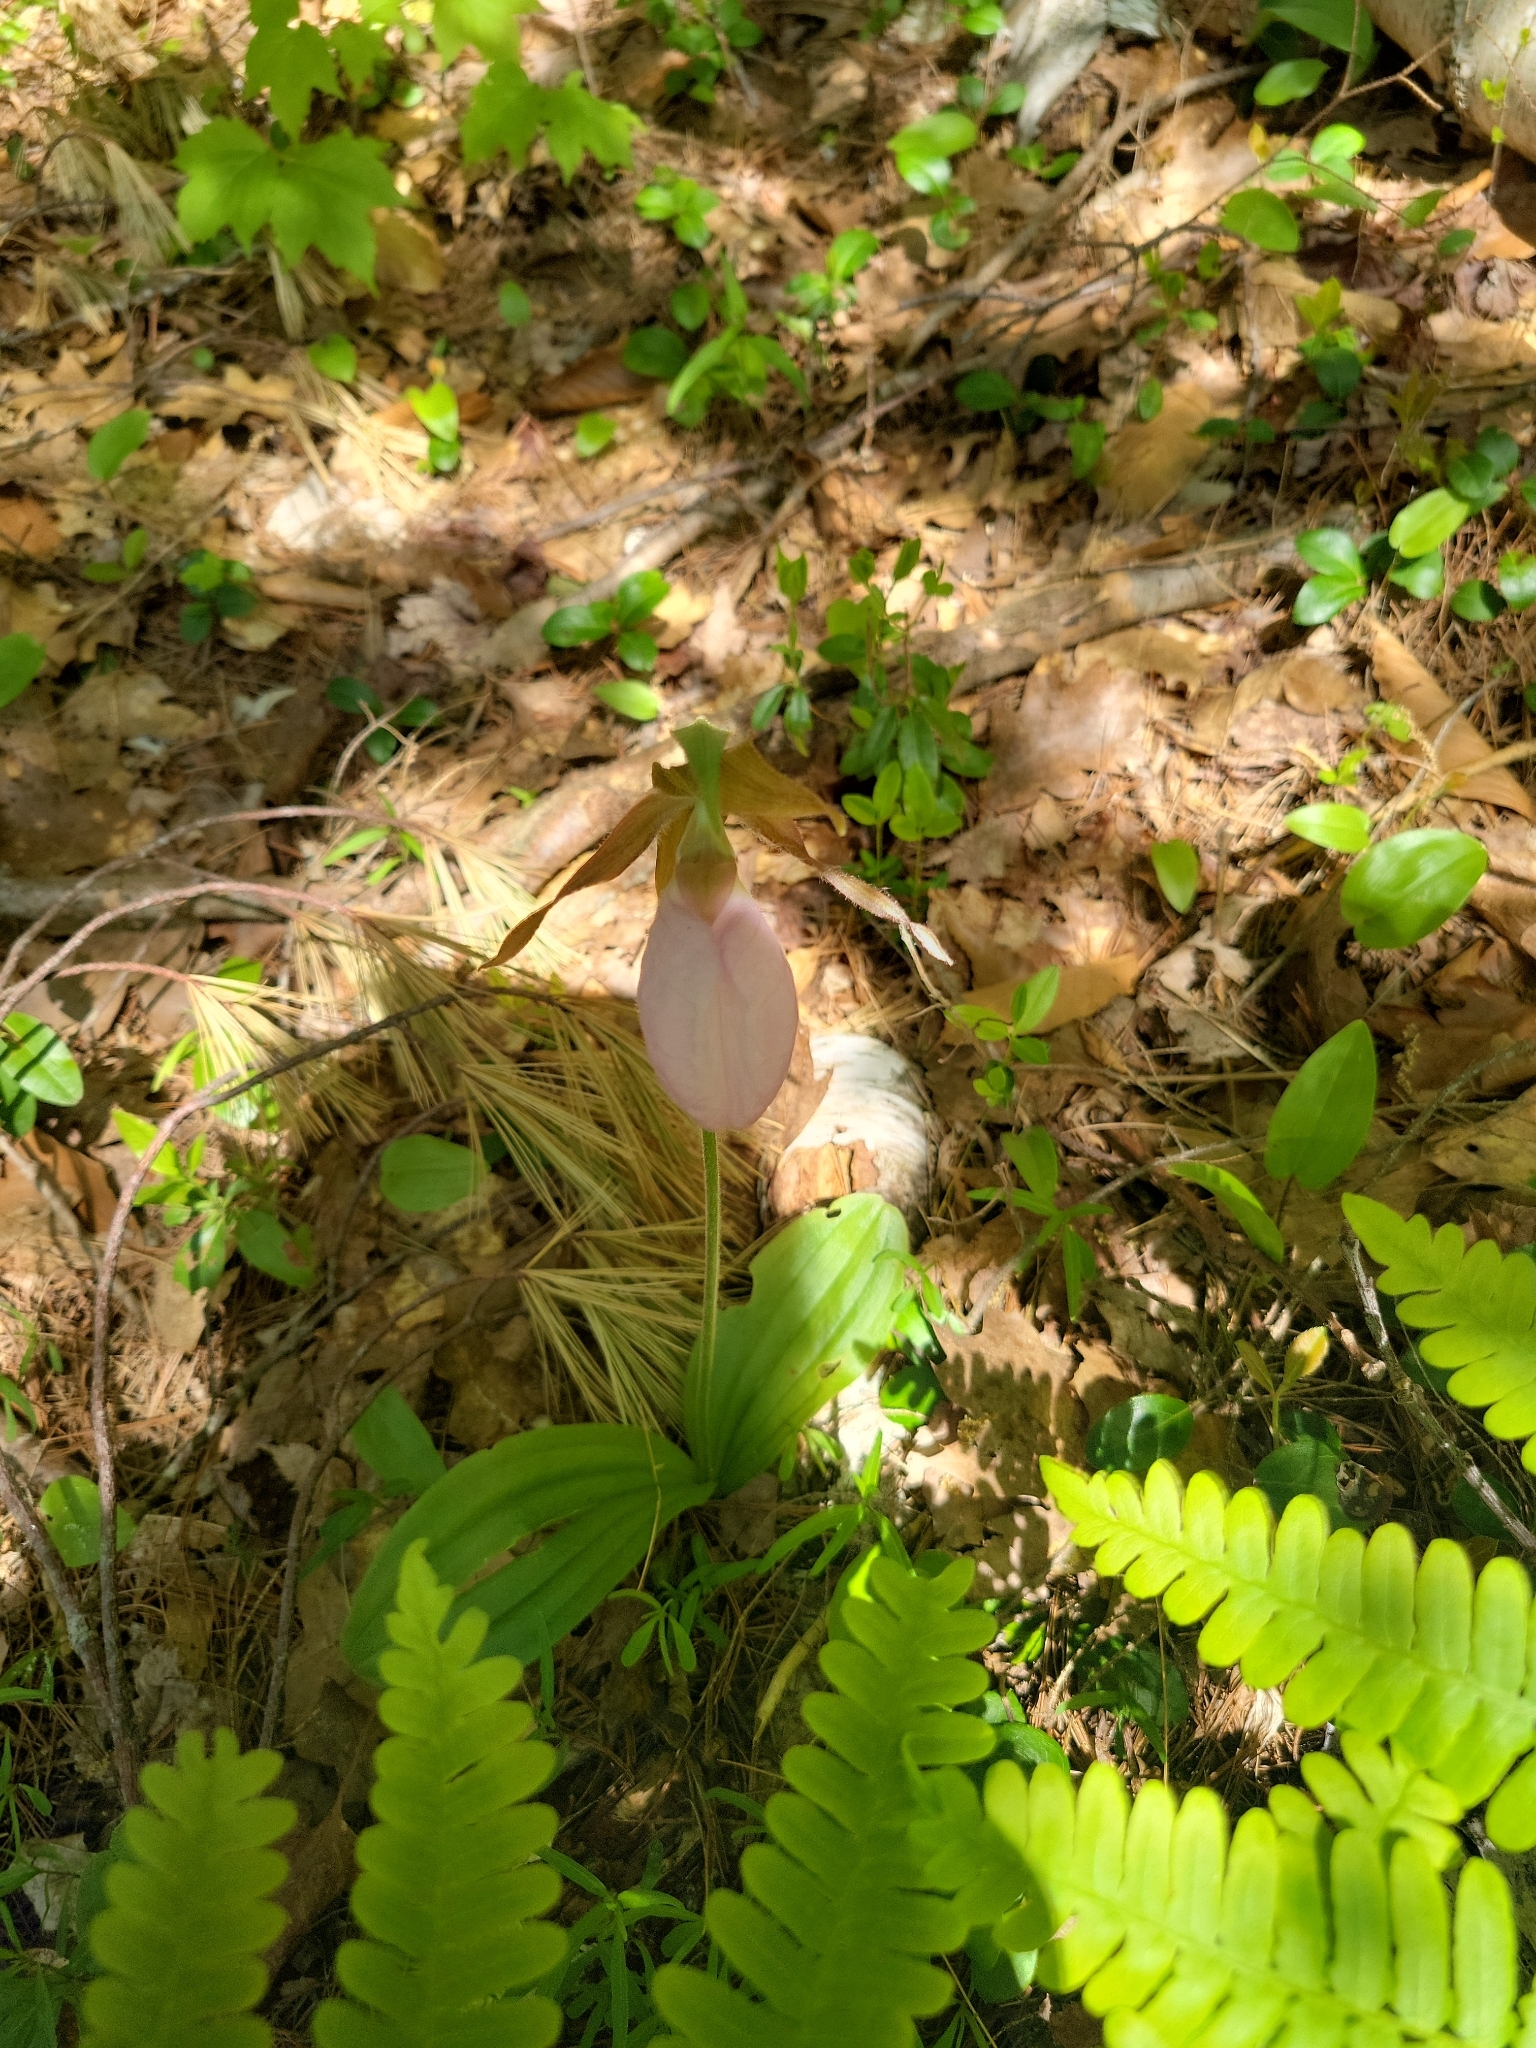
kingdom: Plantae
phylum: Tracheophyta
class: Liliopsida
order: Asparagales
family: Orchidaceae
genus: Cypripedium
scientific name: Cypripedium acaule
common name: Pink lady's-slipper
